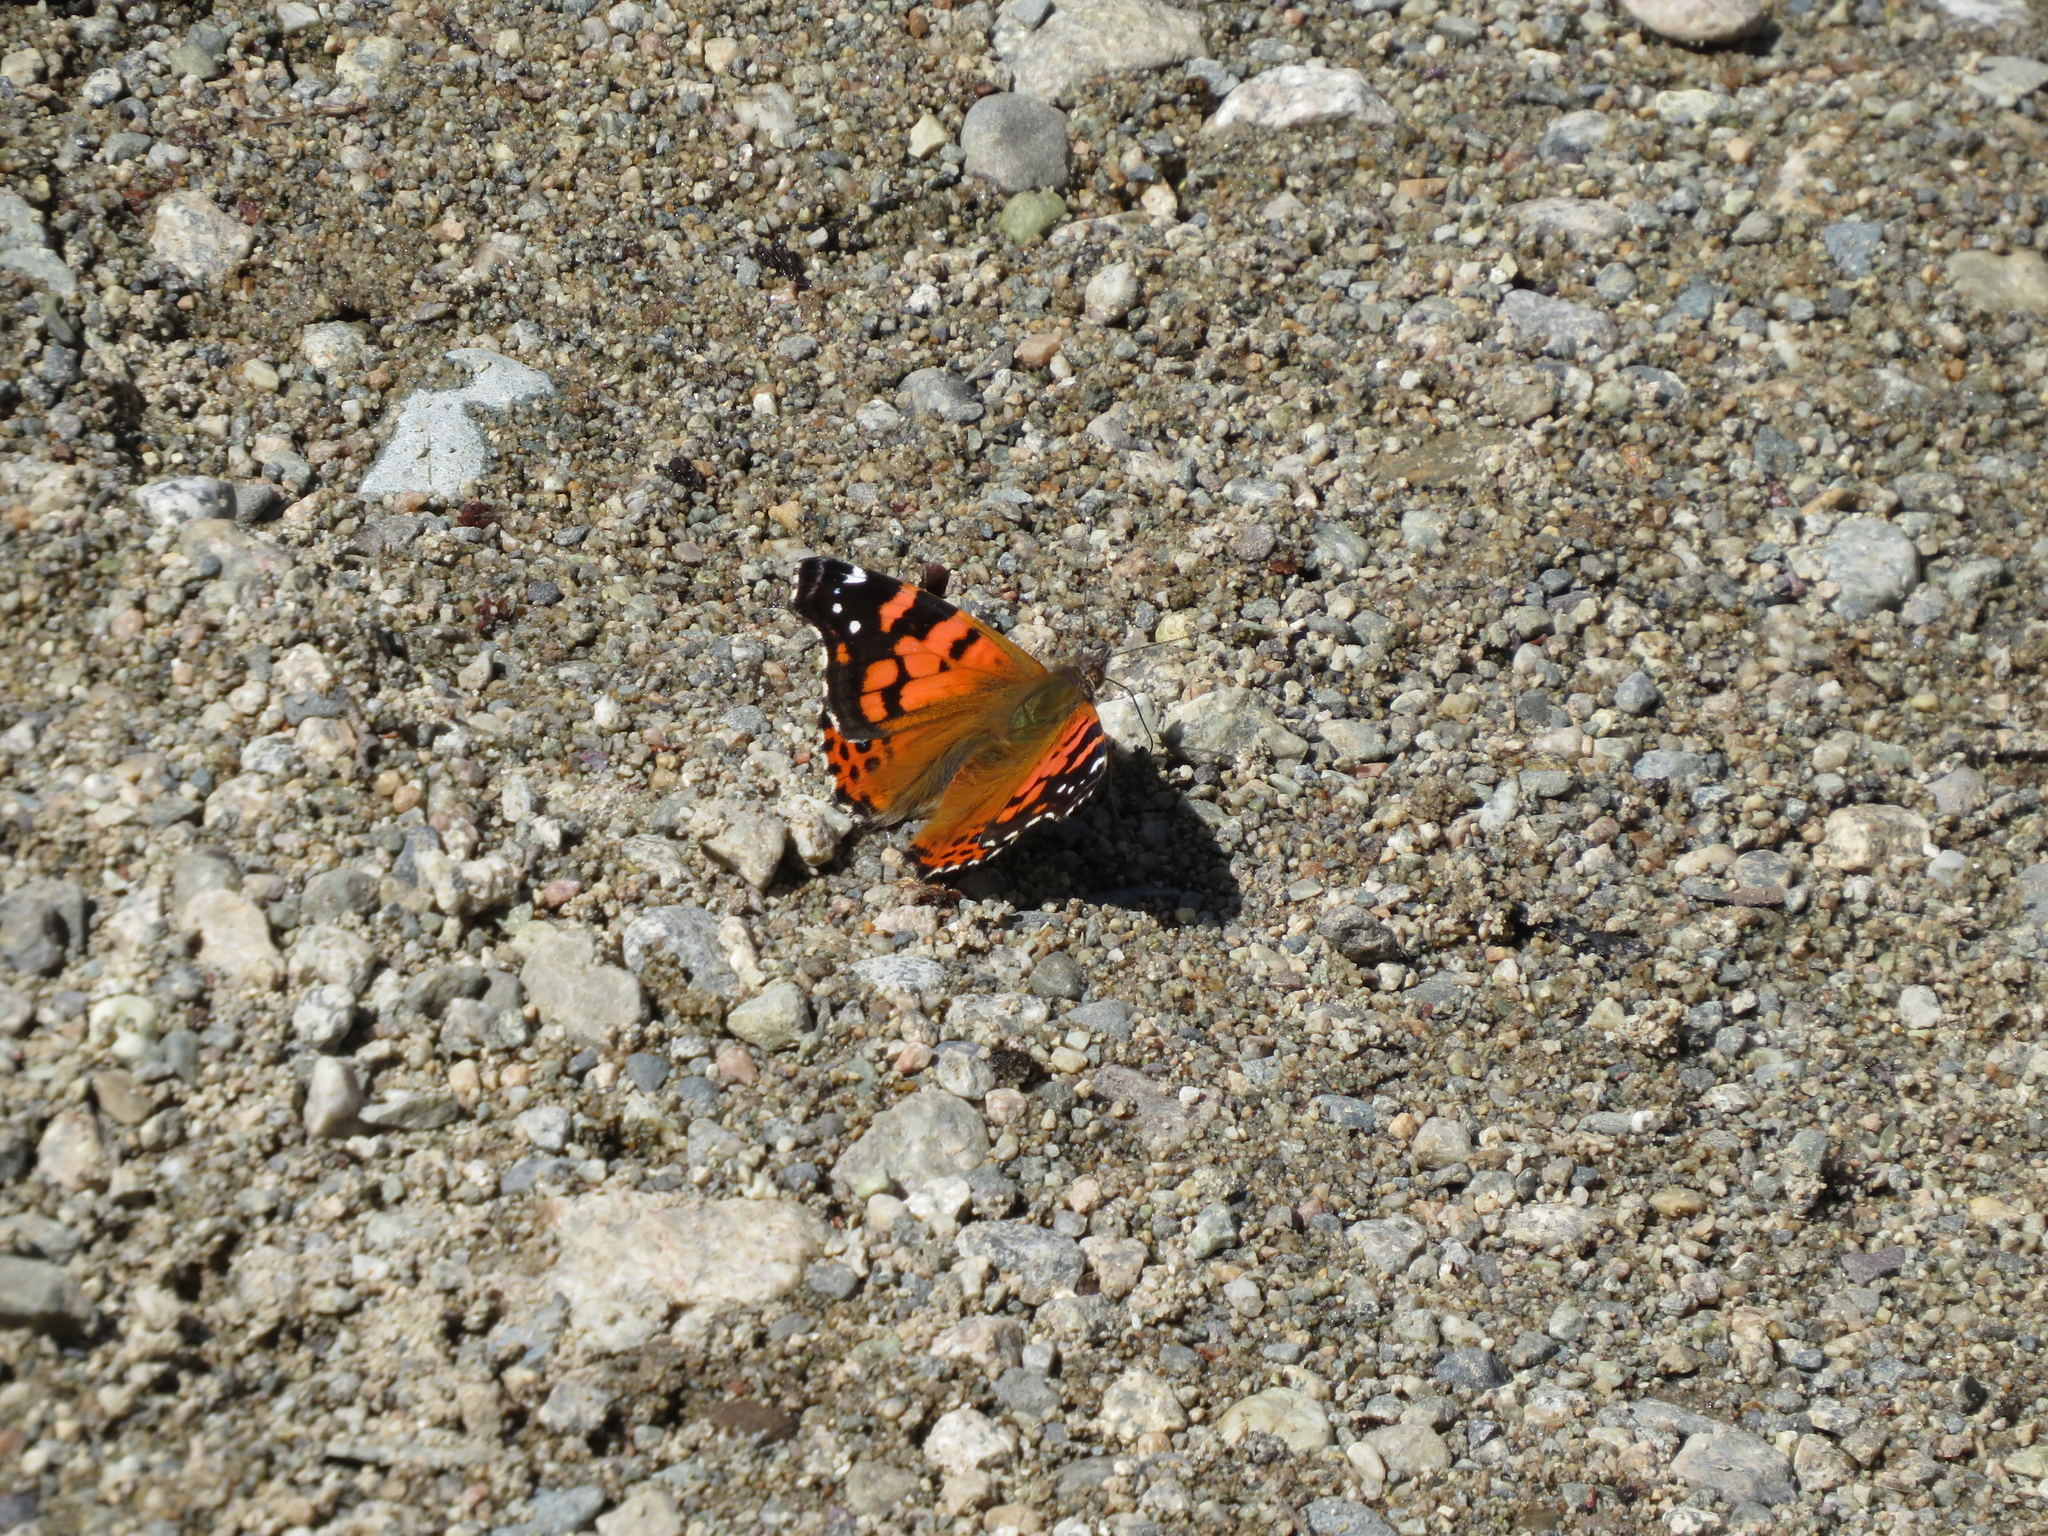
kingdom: Animalia
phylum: Arthropoda
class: Insecta
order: Lepidoptera
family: Nymphalidae
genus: Vanessa
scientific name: Vanessa carye
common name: Subtropical lady
